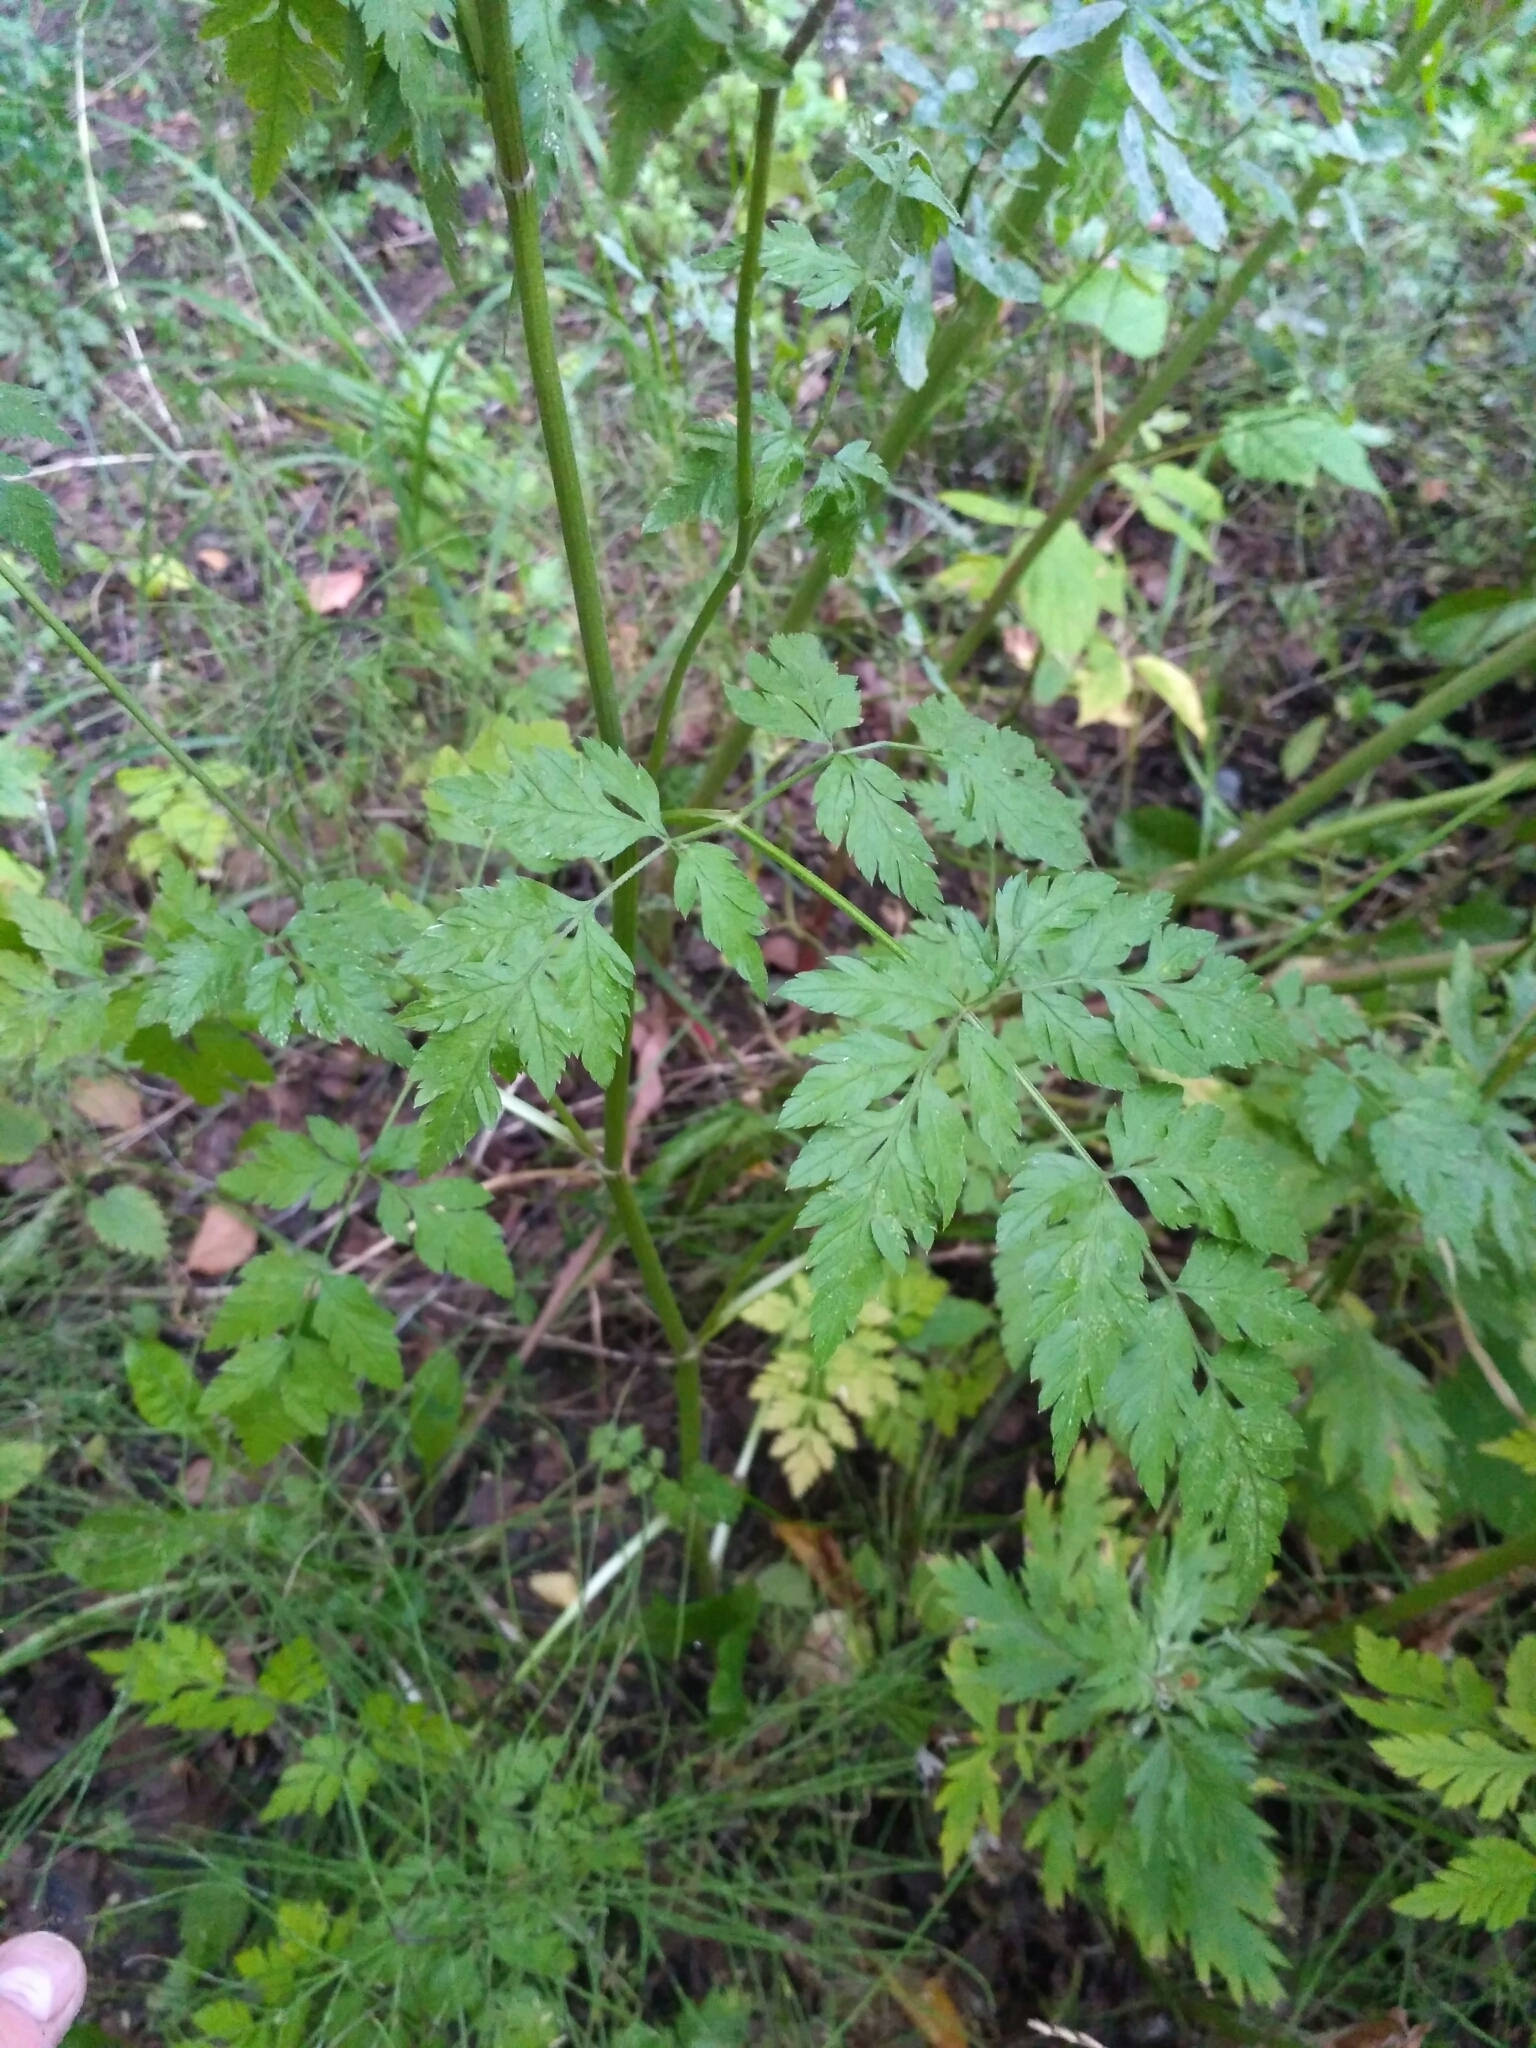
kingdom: Plantae
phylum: Tracheophyta
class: Magnoliopsida
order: Apiales
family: Apiaceae
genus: Torilis
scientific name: Torilis japonica
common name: Upright hedge-parsley
